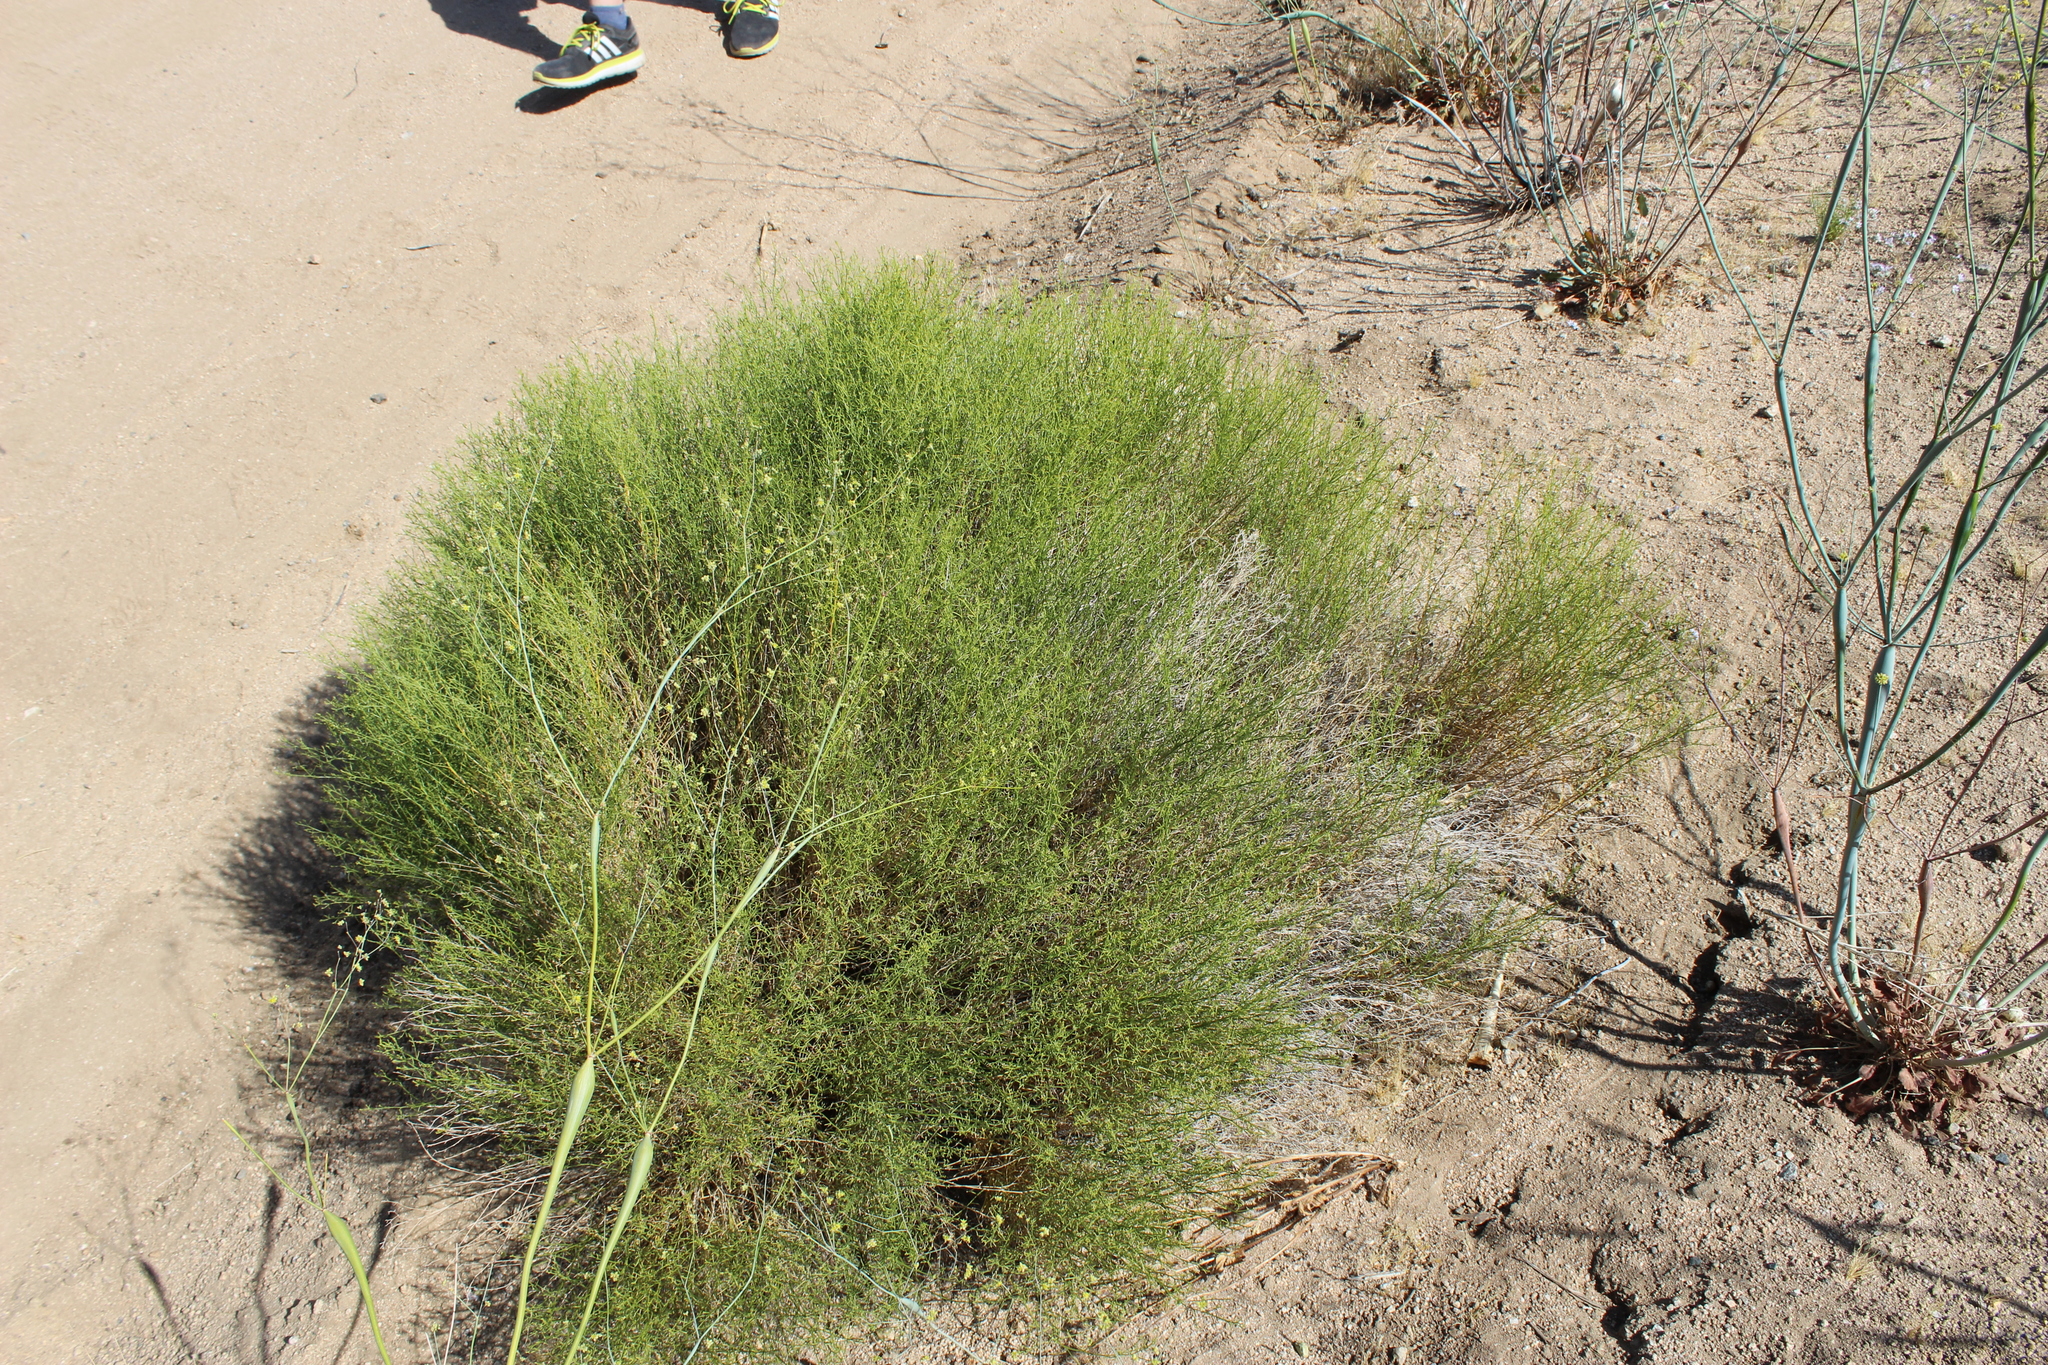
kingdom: Plantae
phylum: Tracheophyta
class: Magnoliopsida
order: Asterales
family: Asteraceae
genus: Ambrosia
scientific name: Ambrosia salsola
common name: Burrobrush
